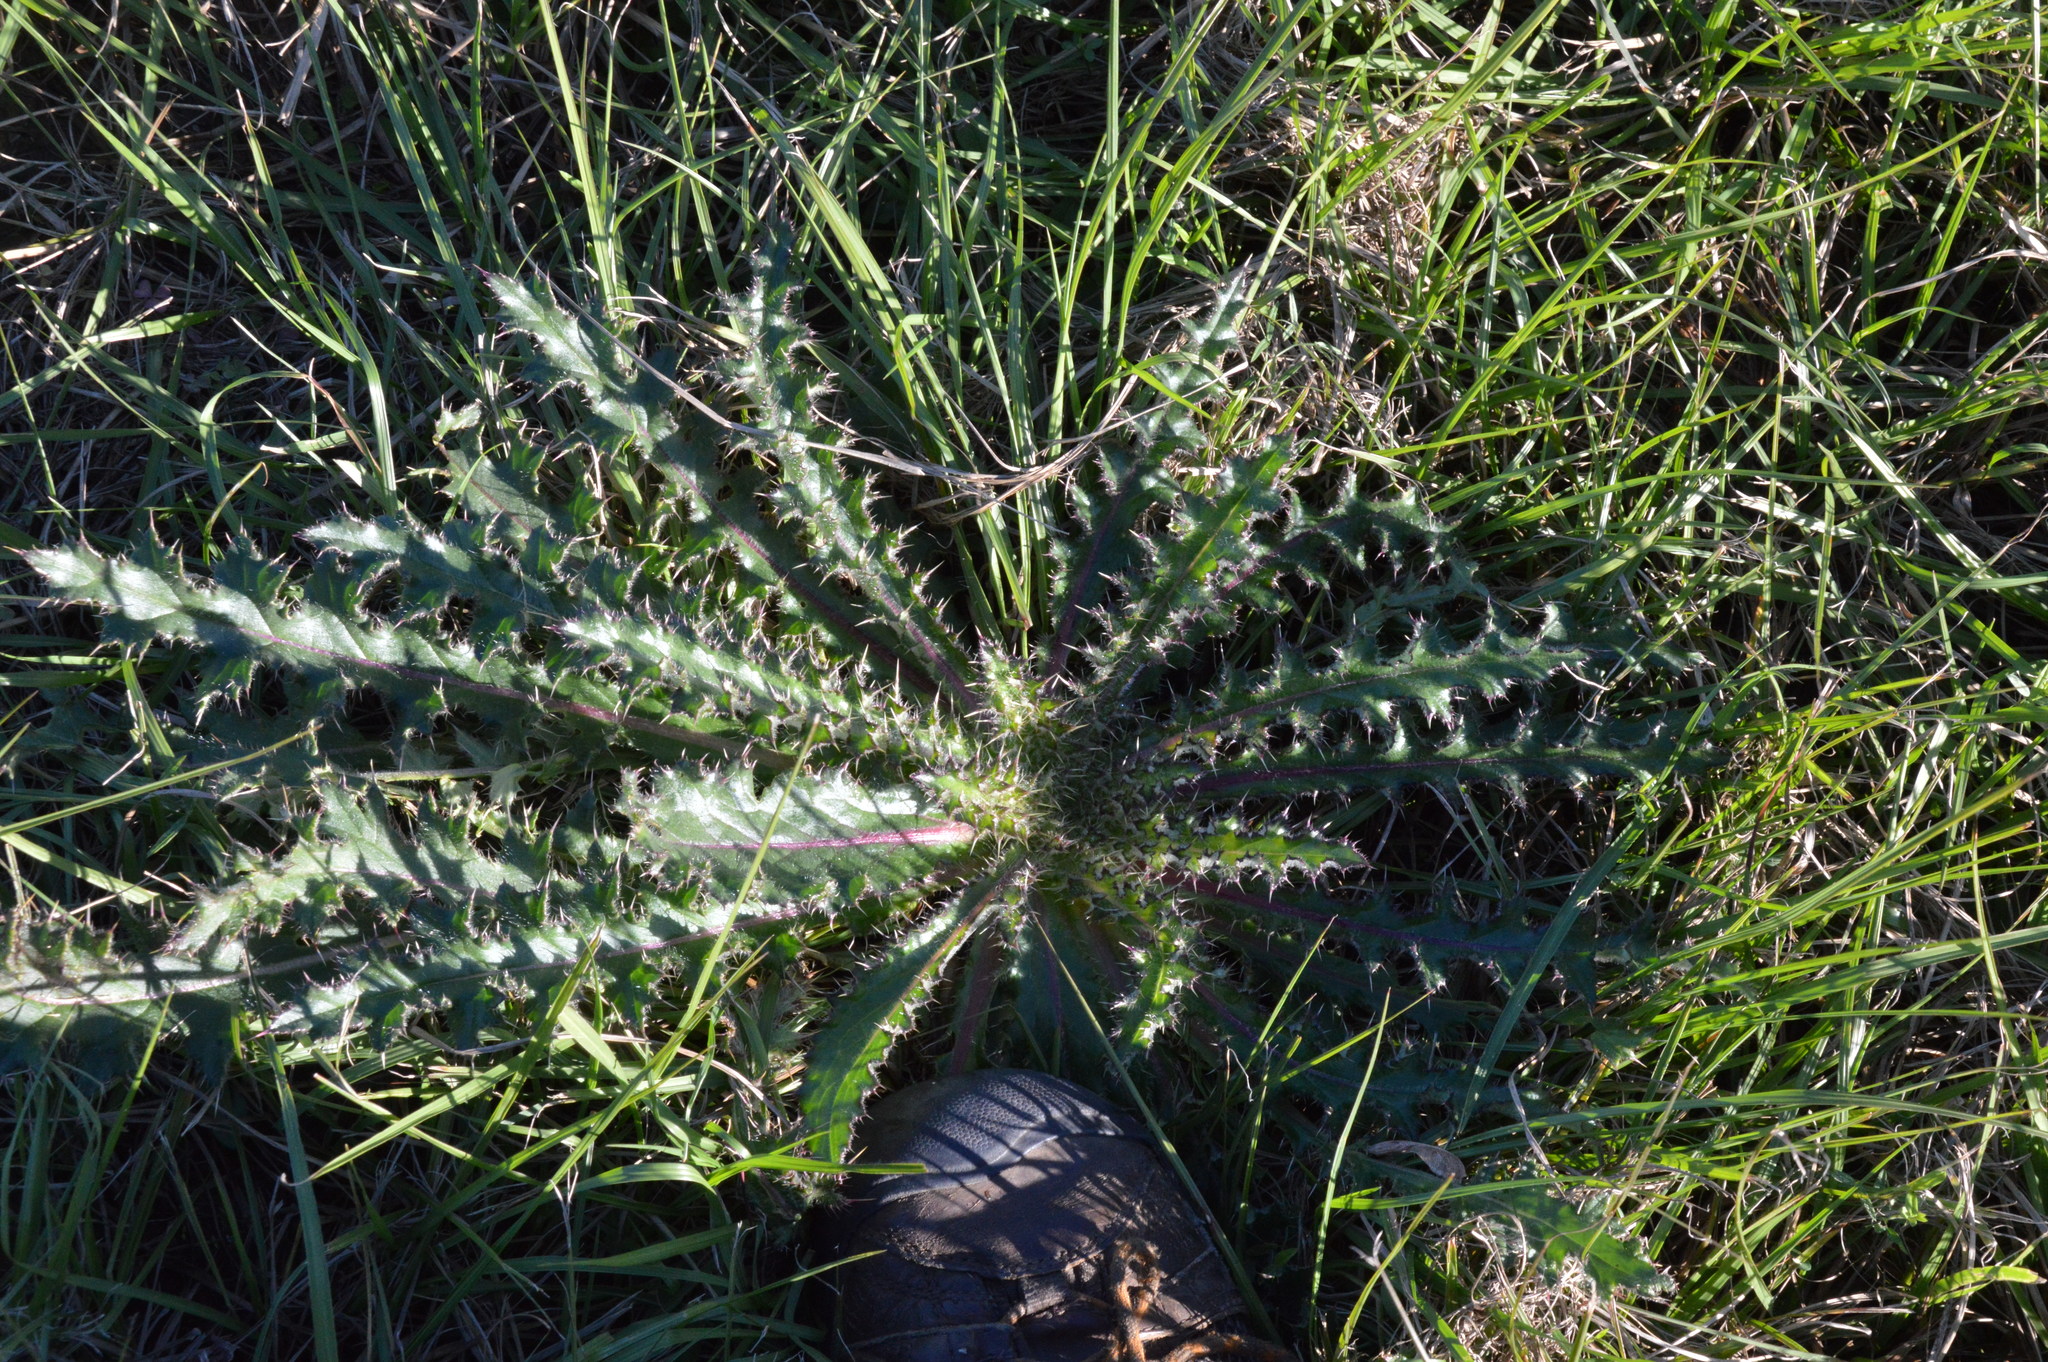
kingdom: Plantae
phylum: Tracheophyta
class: Magnoliopsida
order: Asterales
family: Asteraceae
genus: Cirsium
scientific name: Cirsium horridulum
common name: Bristly thistle
